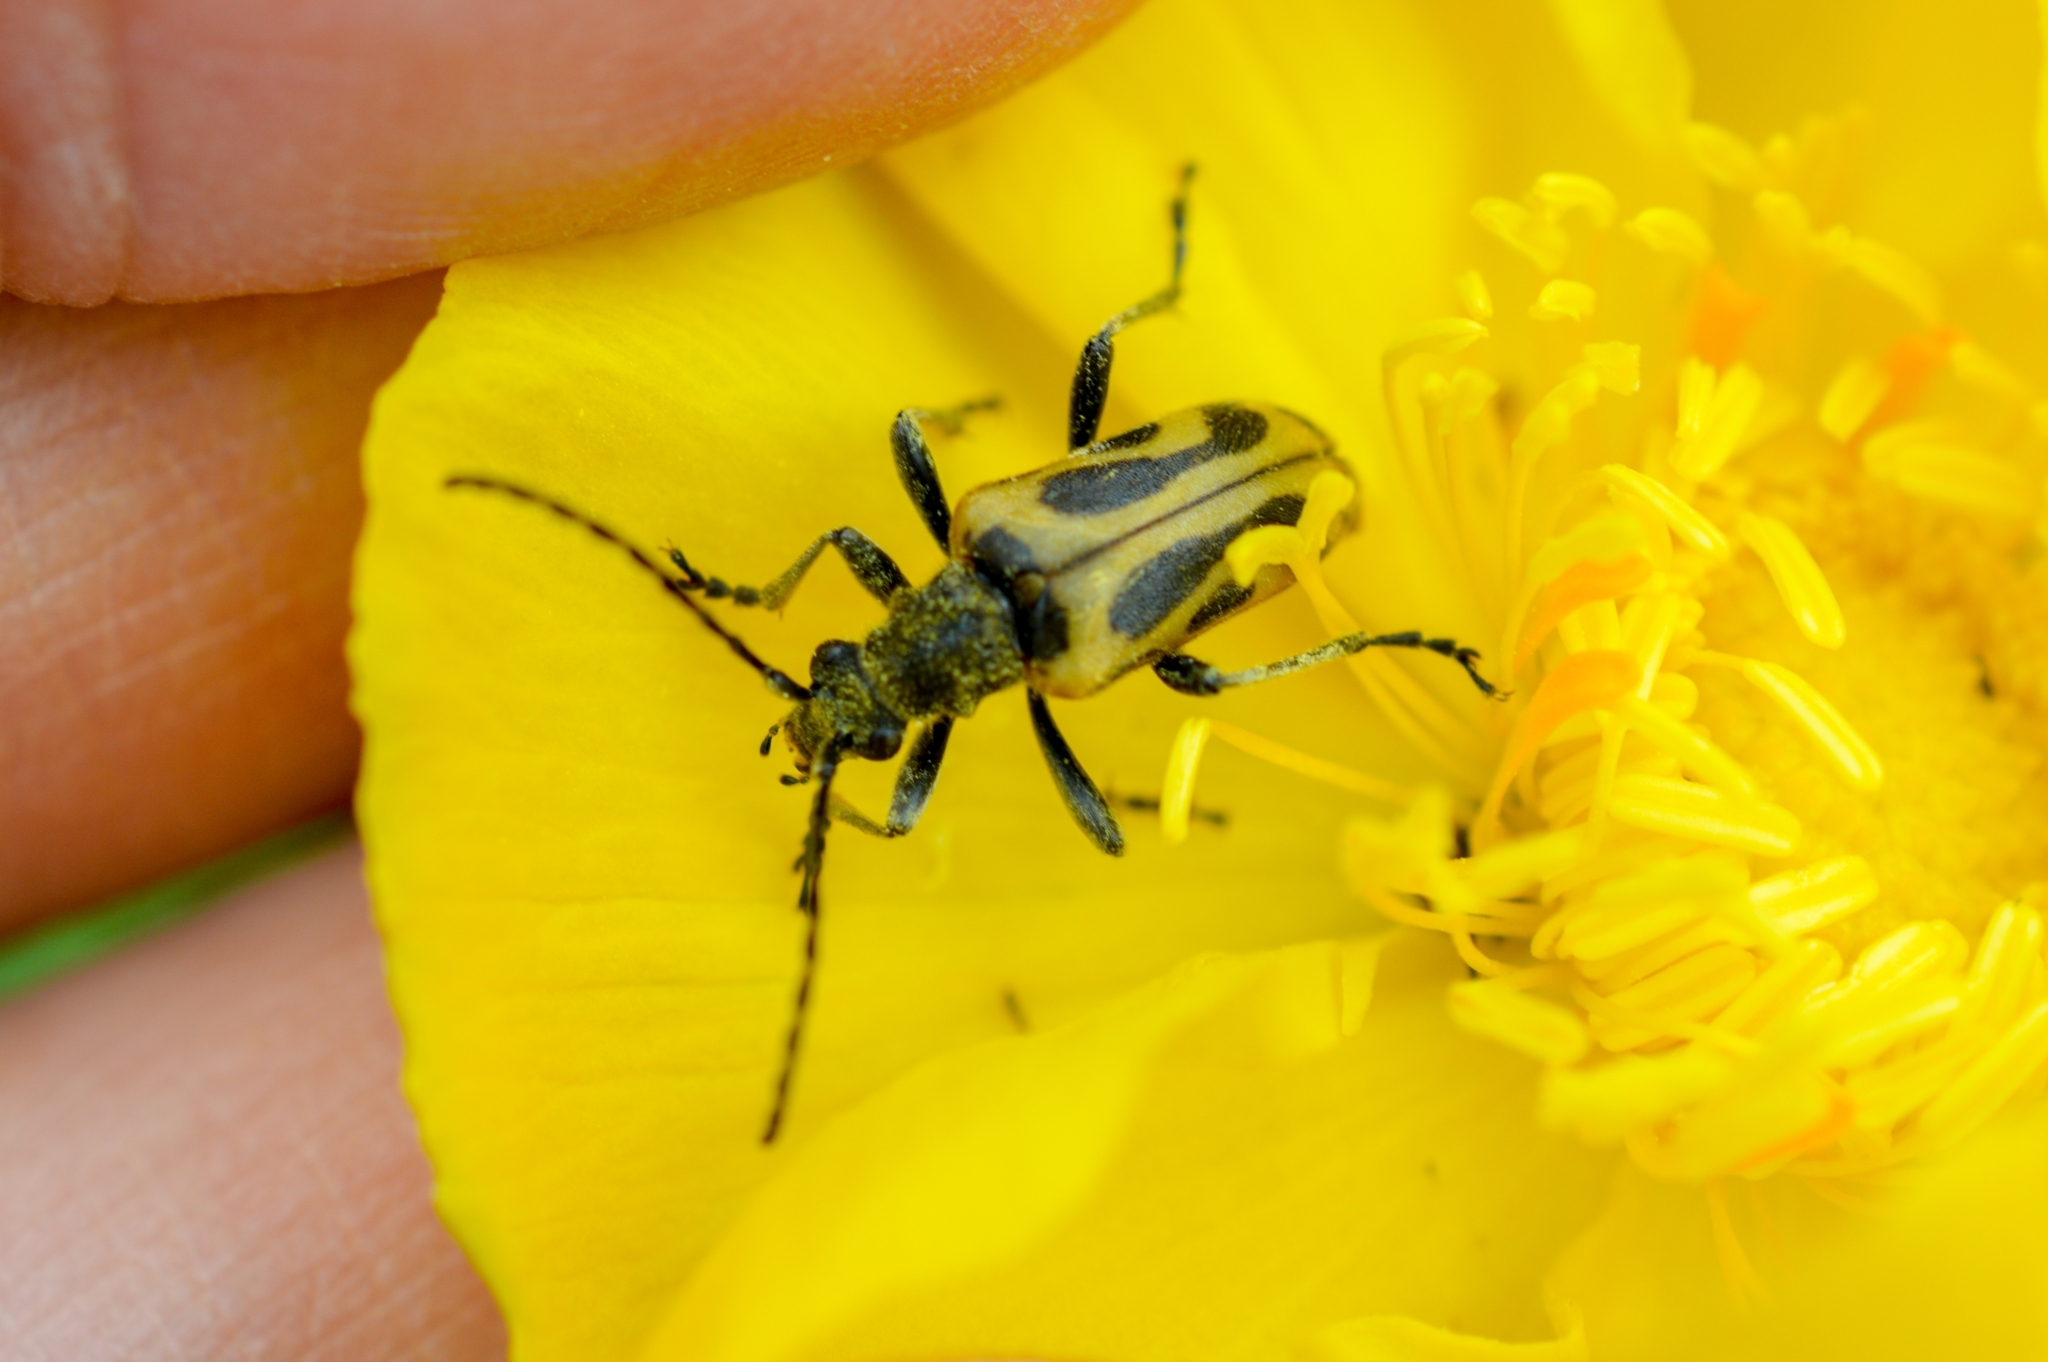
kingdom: Animalia
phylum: Arthropoda
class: Insecta
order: Coleoptera
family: Cerambycidae
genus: Brachyta
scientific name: Brachyta interrogationis
